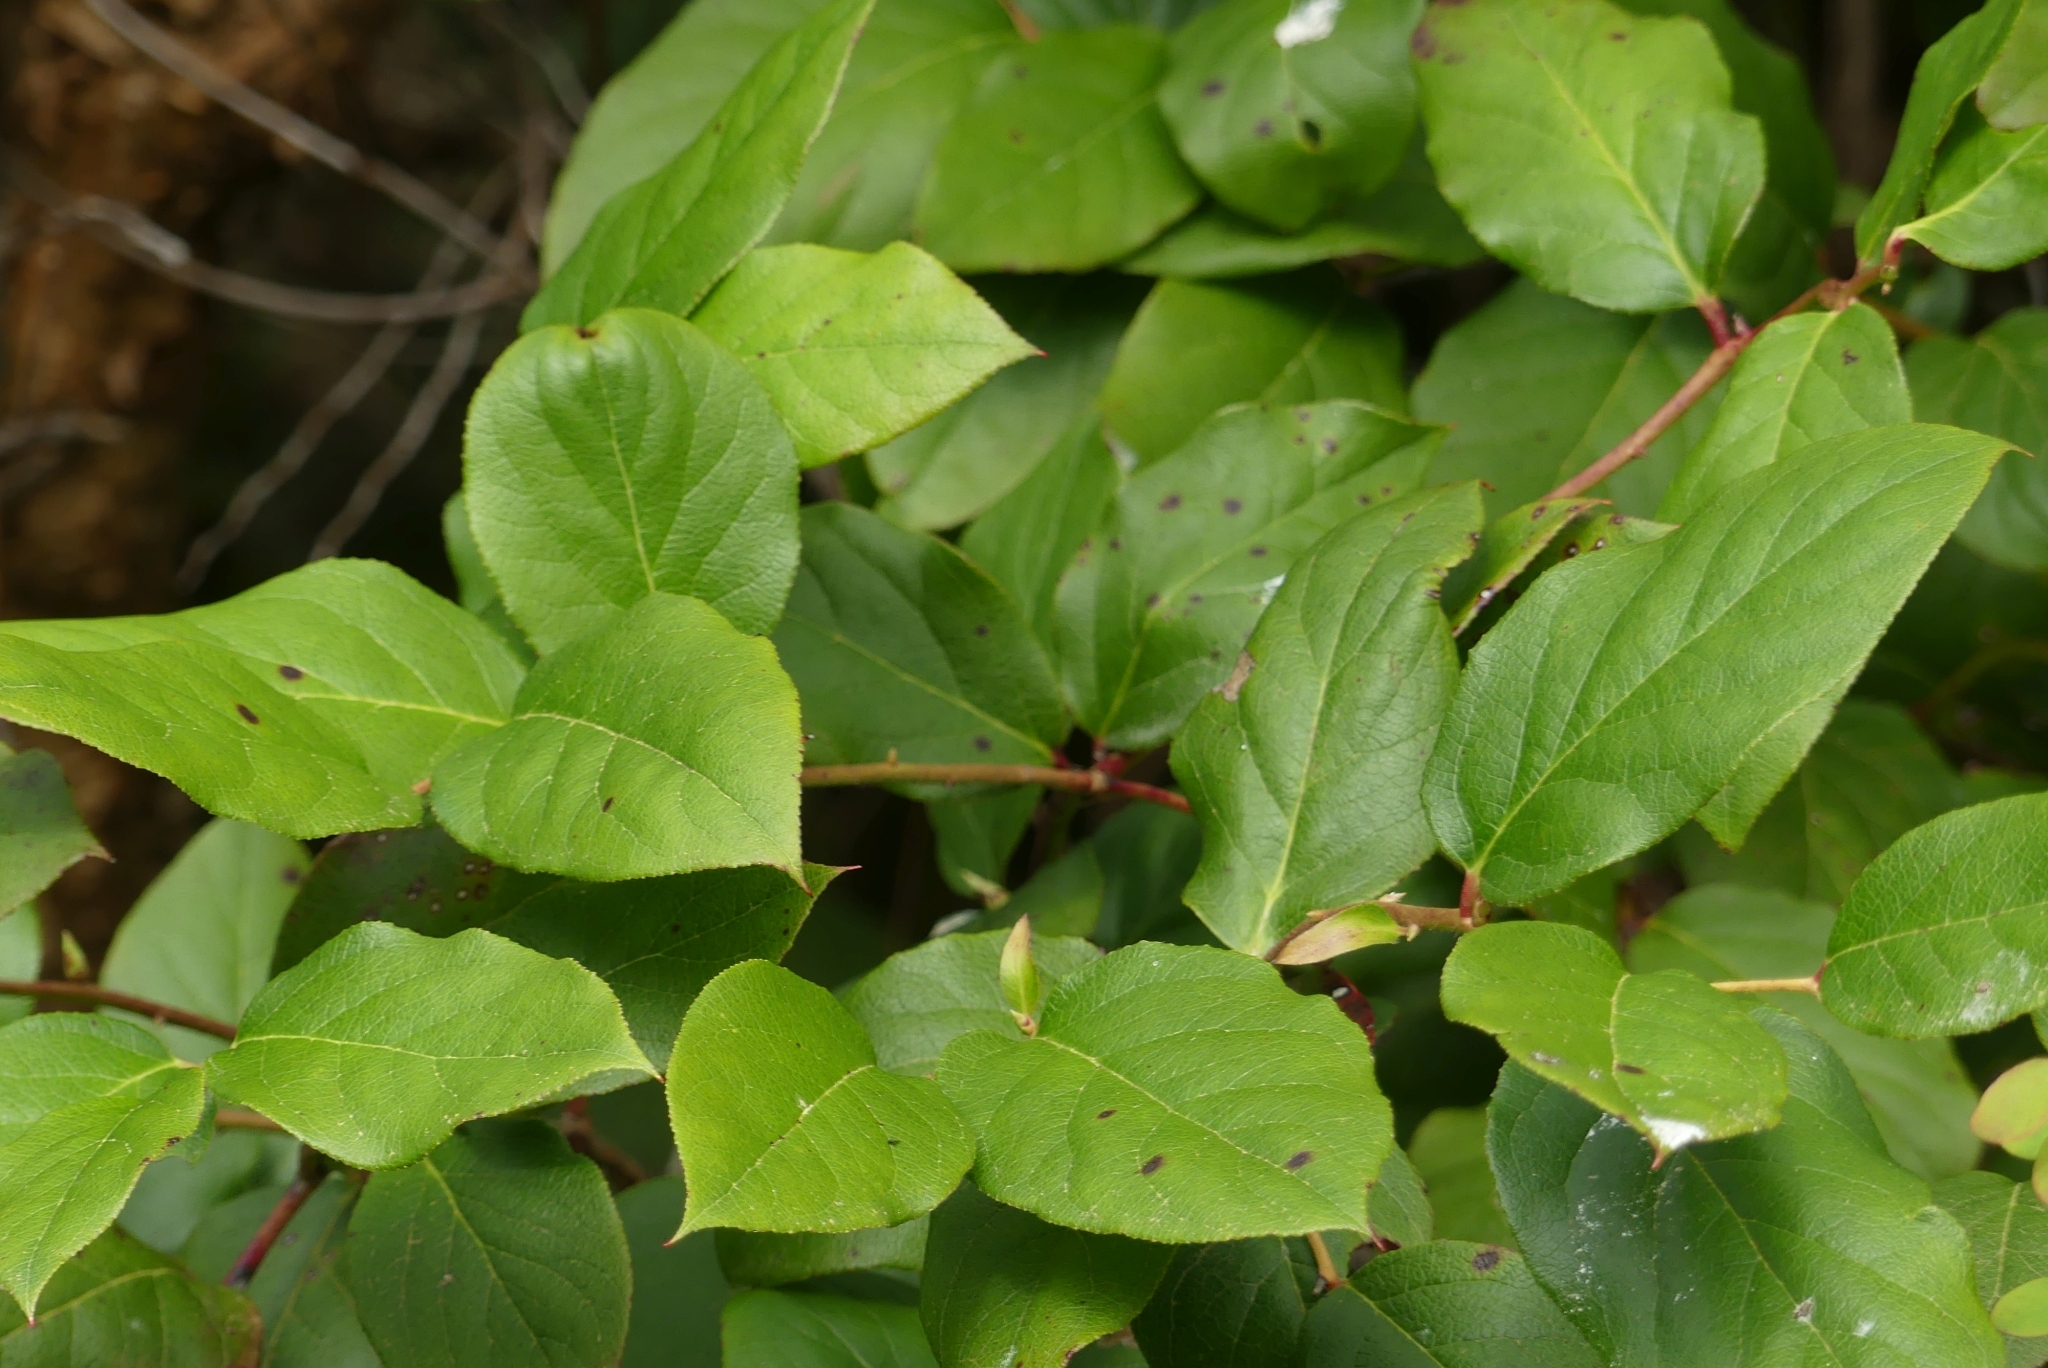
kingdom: Plantae
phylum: Tracheophyta
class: Magnoliopsida
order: Ericales
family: Ericaceae
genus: Gaultheria
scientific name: Gaultheria shallon
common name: Shallon
